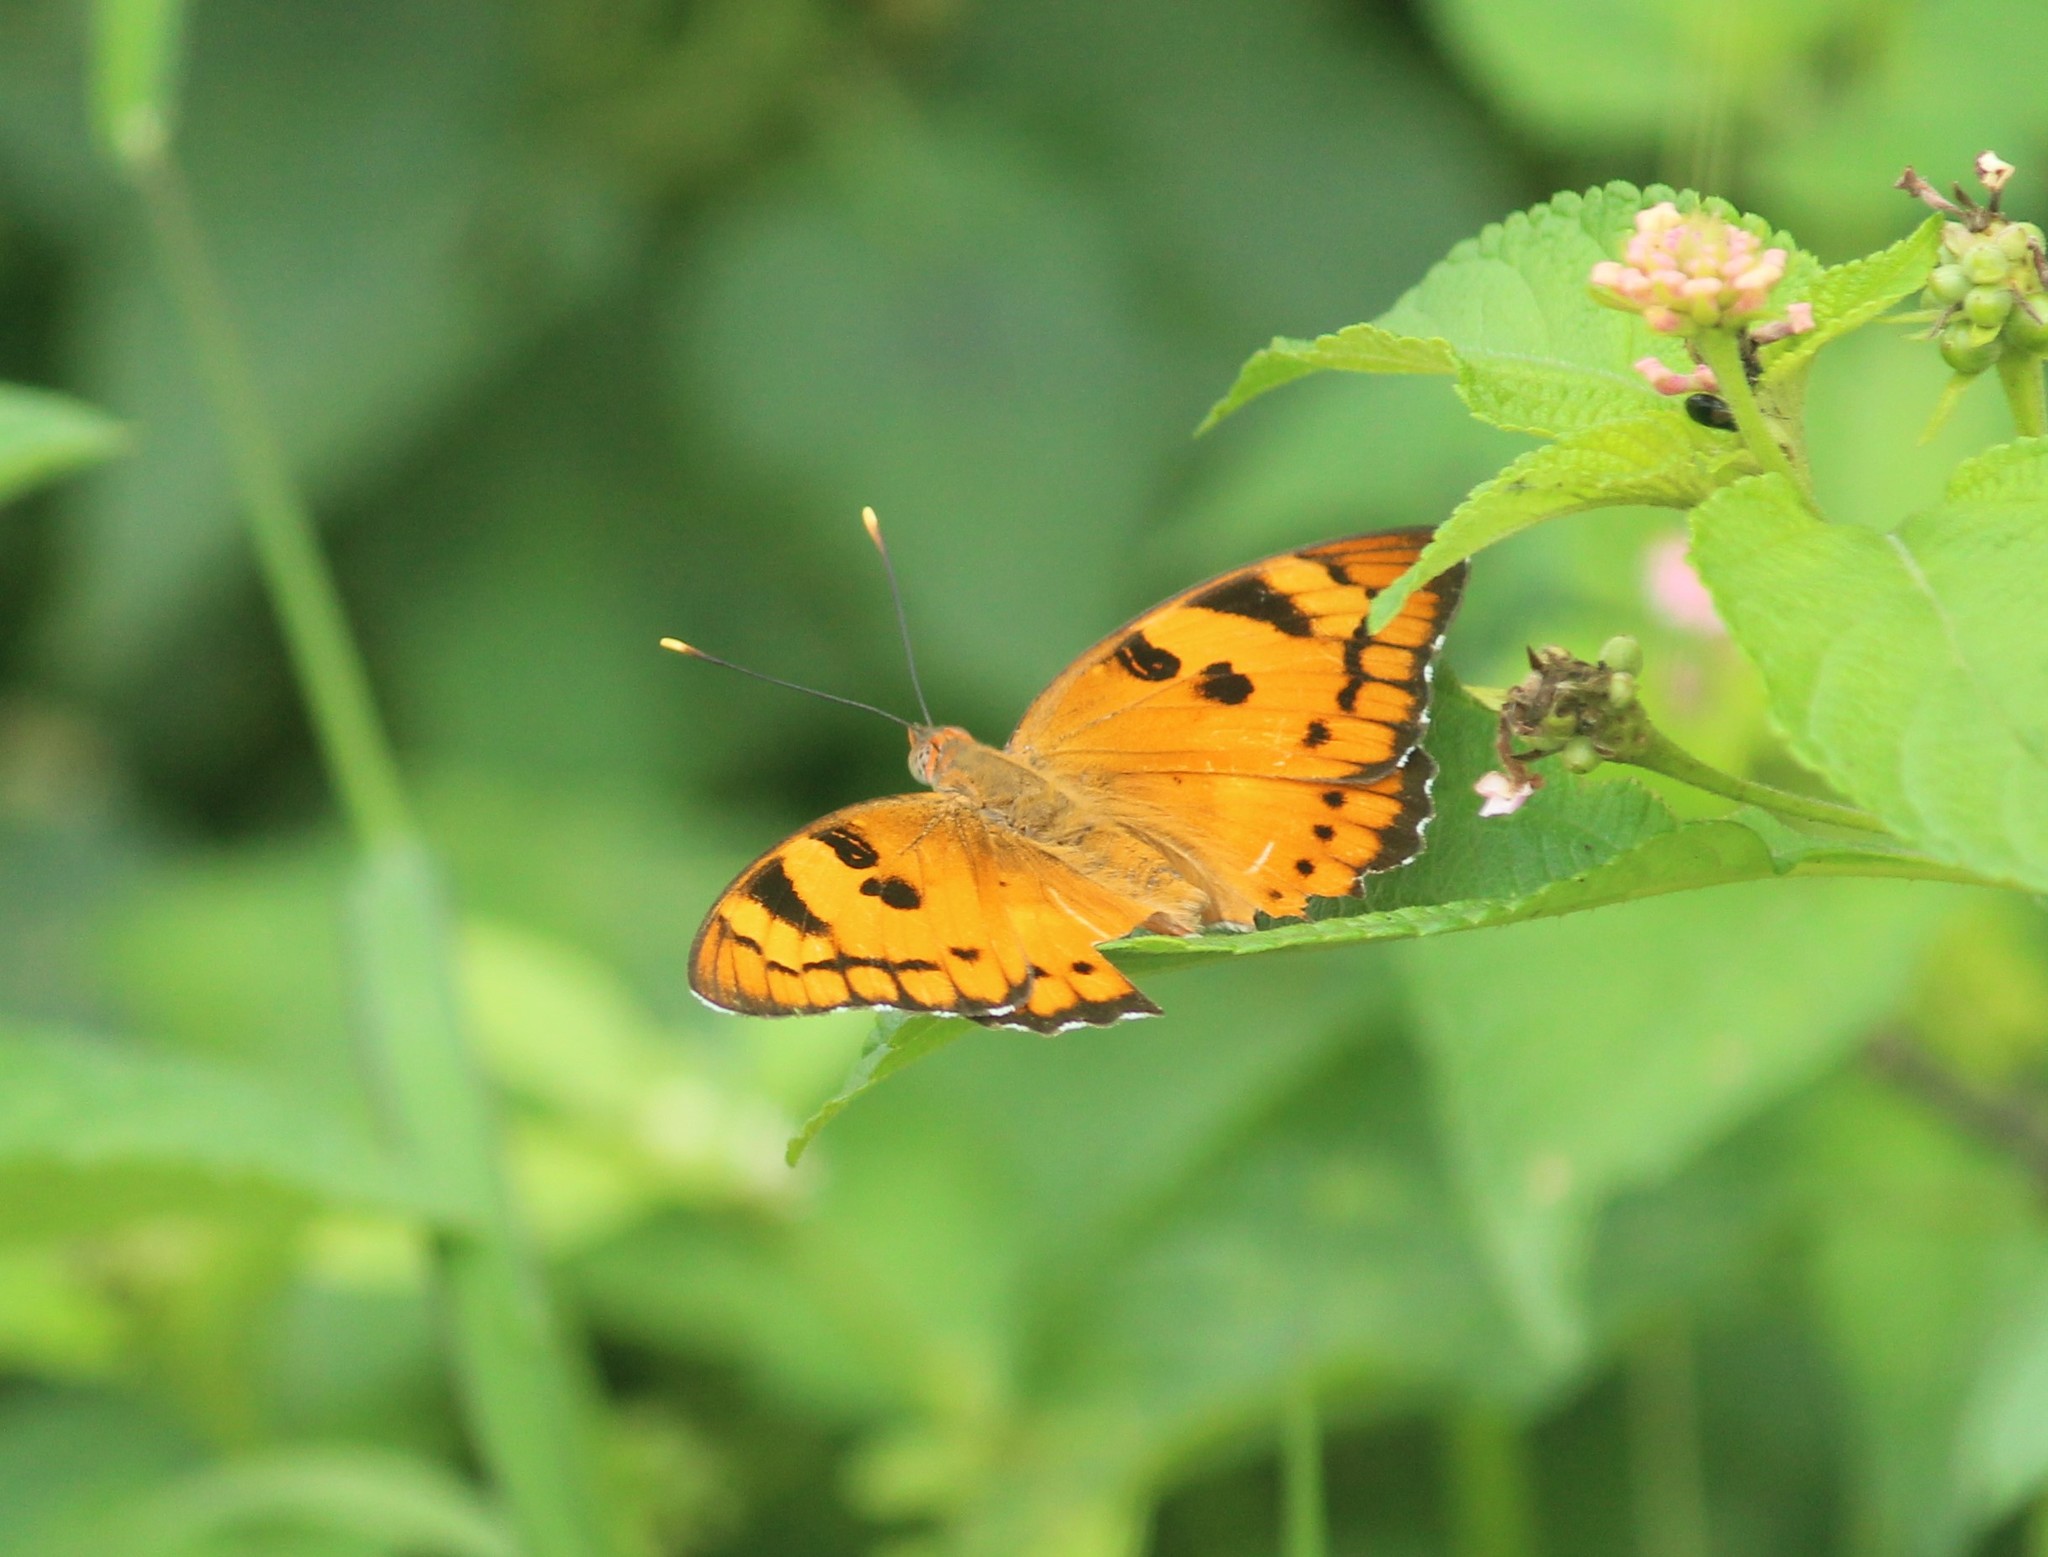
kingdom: Animalia
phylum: Arthropoda
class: Insecta
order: Lepidoptera
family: Nymphalidae
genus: Euthalia
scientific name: Euthalia nais
